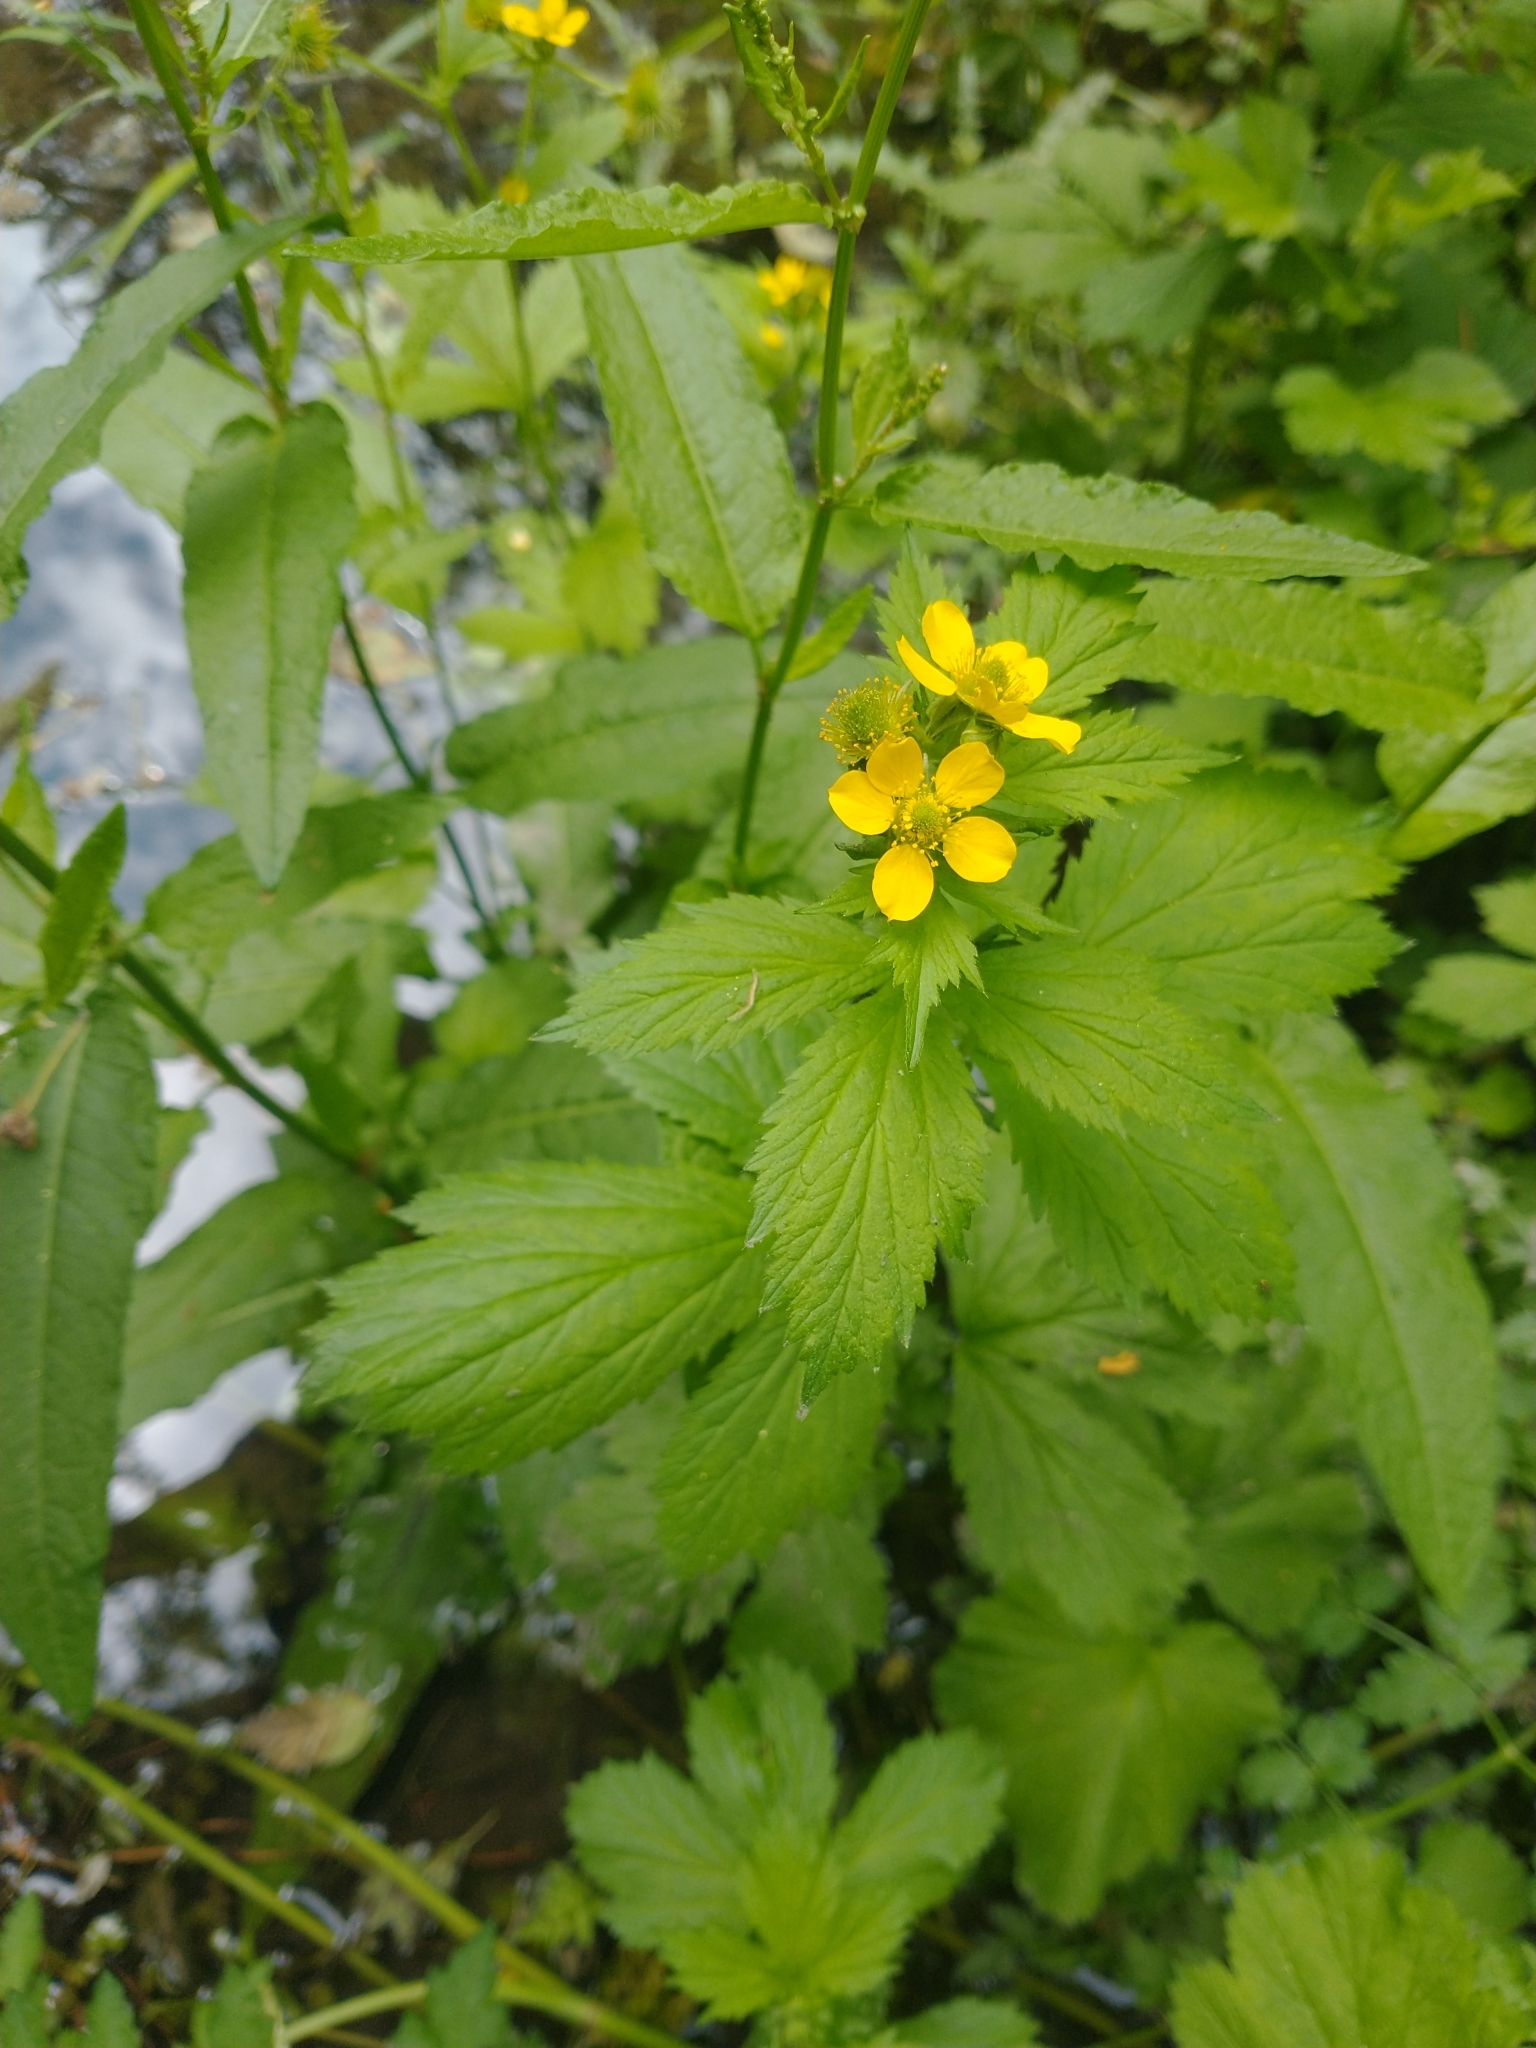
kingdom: Plantae
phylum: Tracheophyta
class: Magnoliopsida
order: Rosales
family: Rosaceae
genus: Geum
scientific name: Geum macrophyllum
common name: Large-leaved avens
